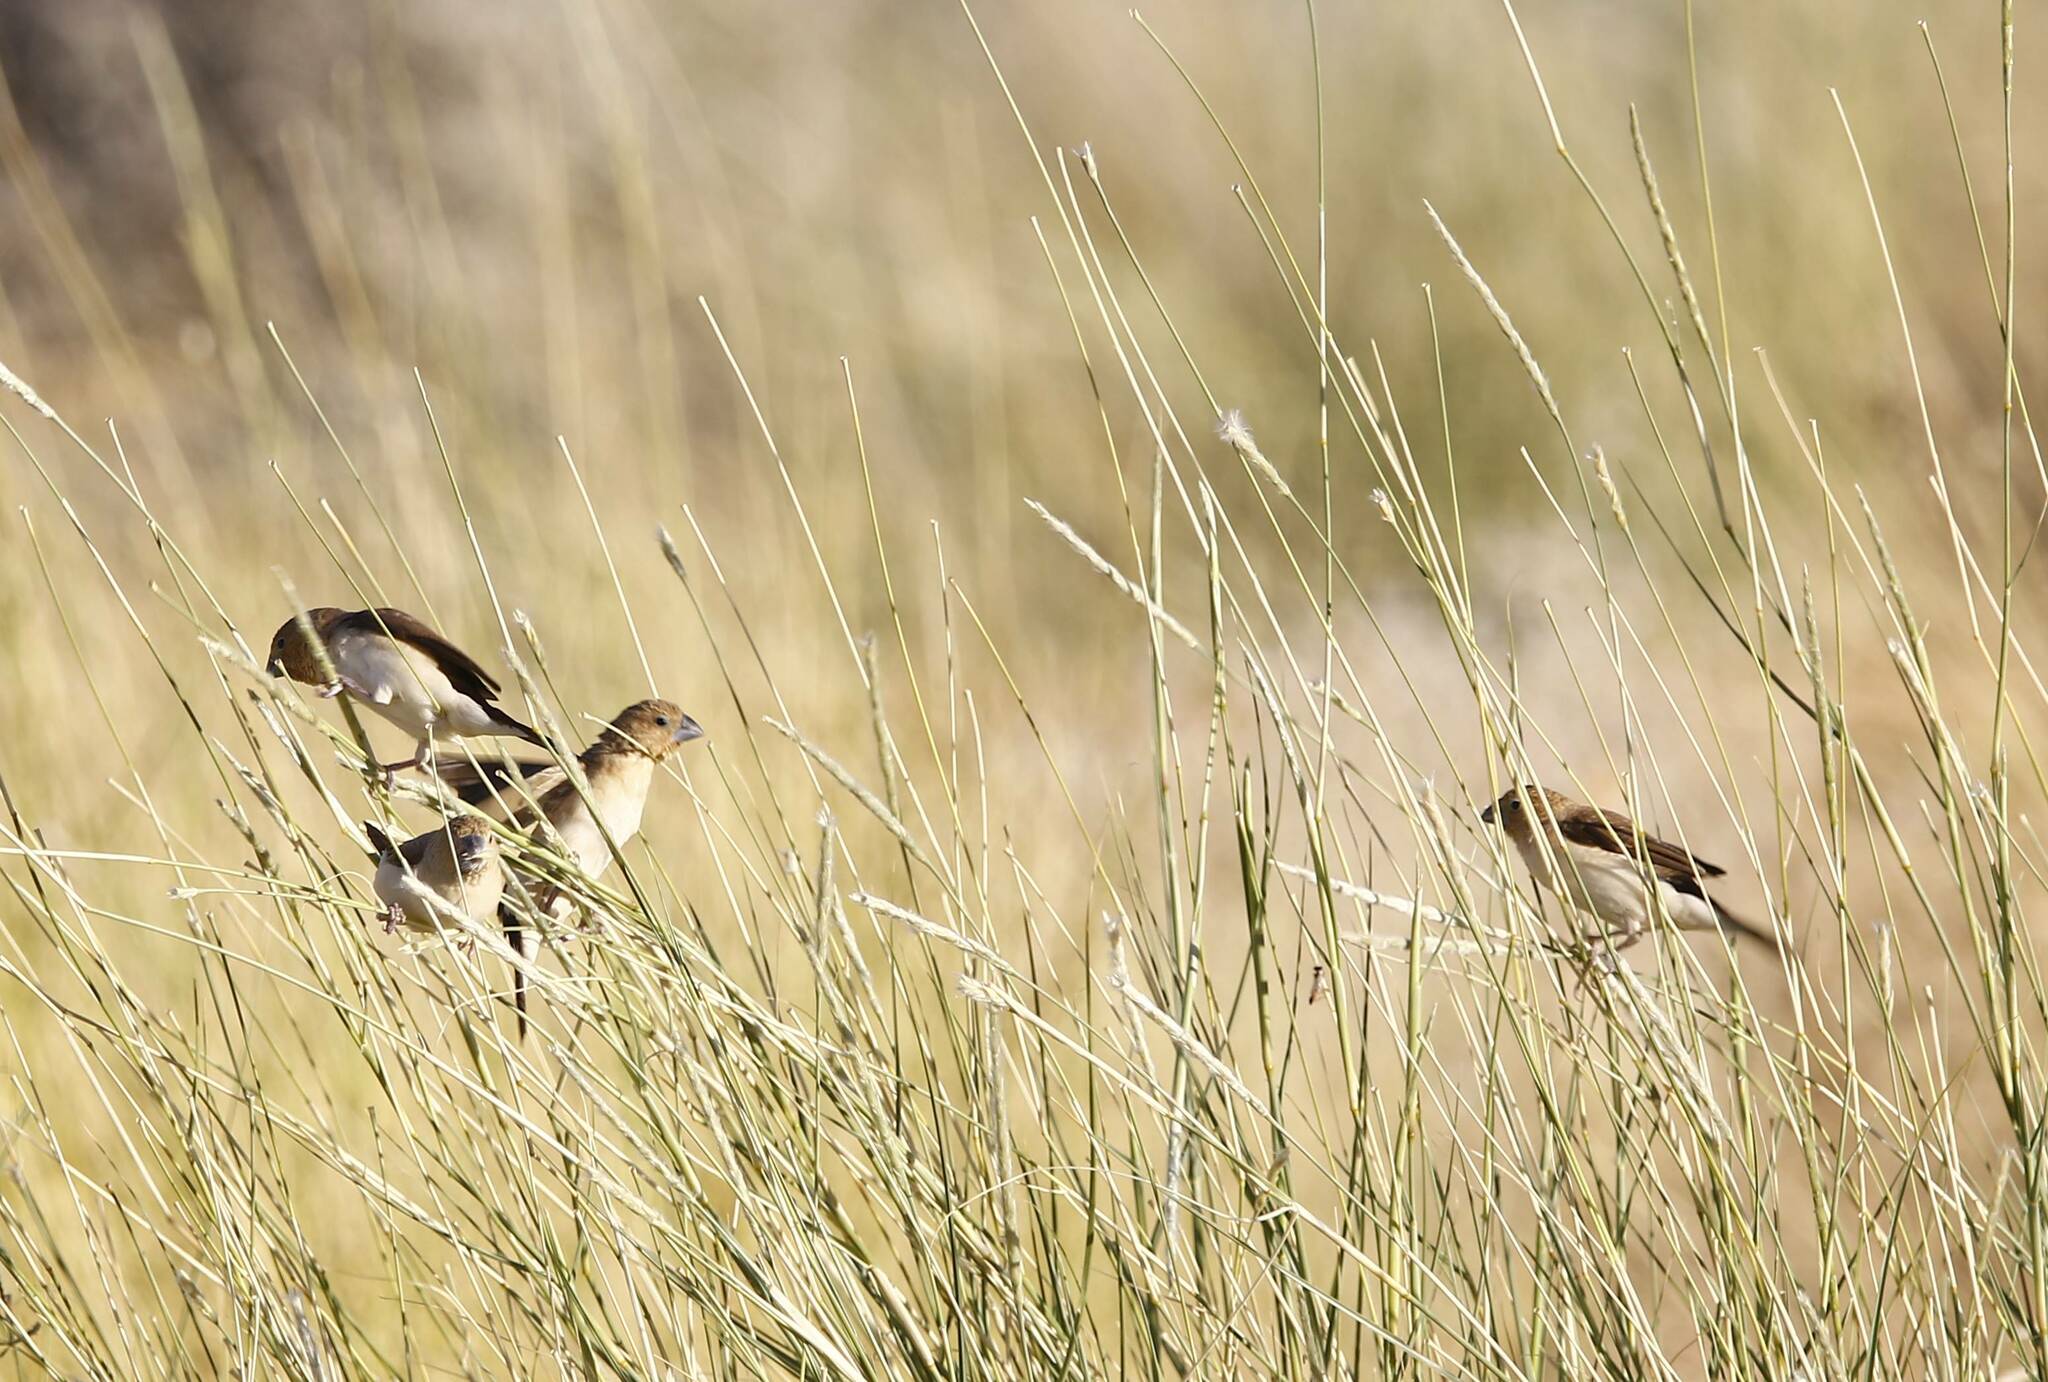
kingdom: Animalia
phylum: Chordata
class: Aves
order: Passeriformes
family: Estrildidae
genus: Euodice
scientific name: Euodice cantans
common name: African silverbill
